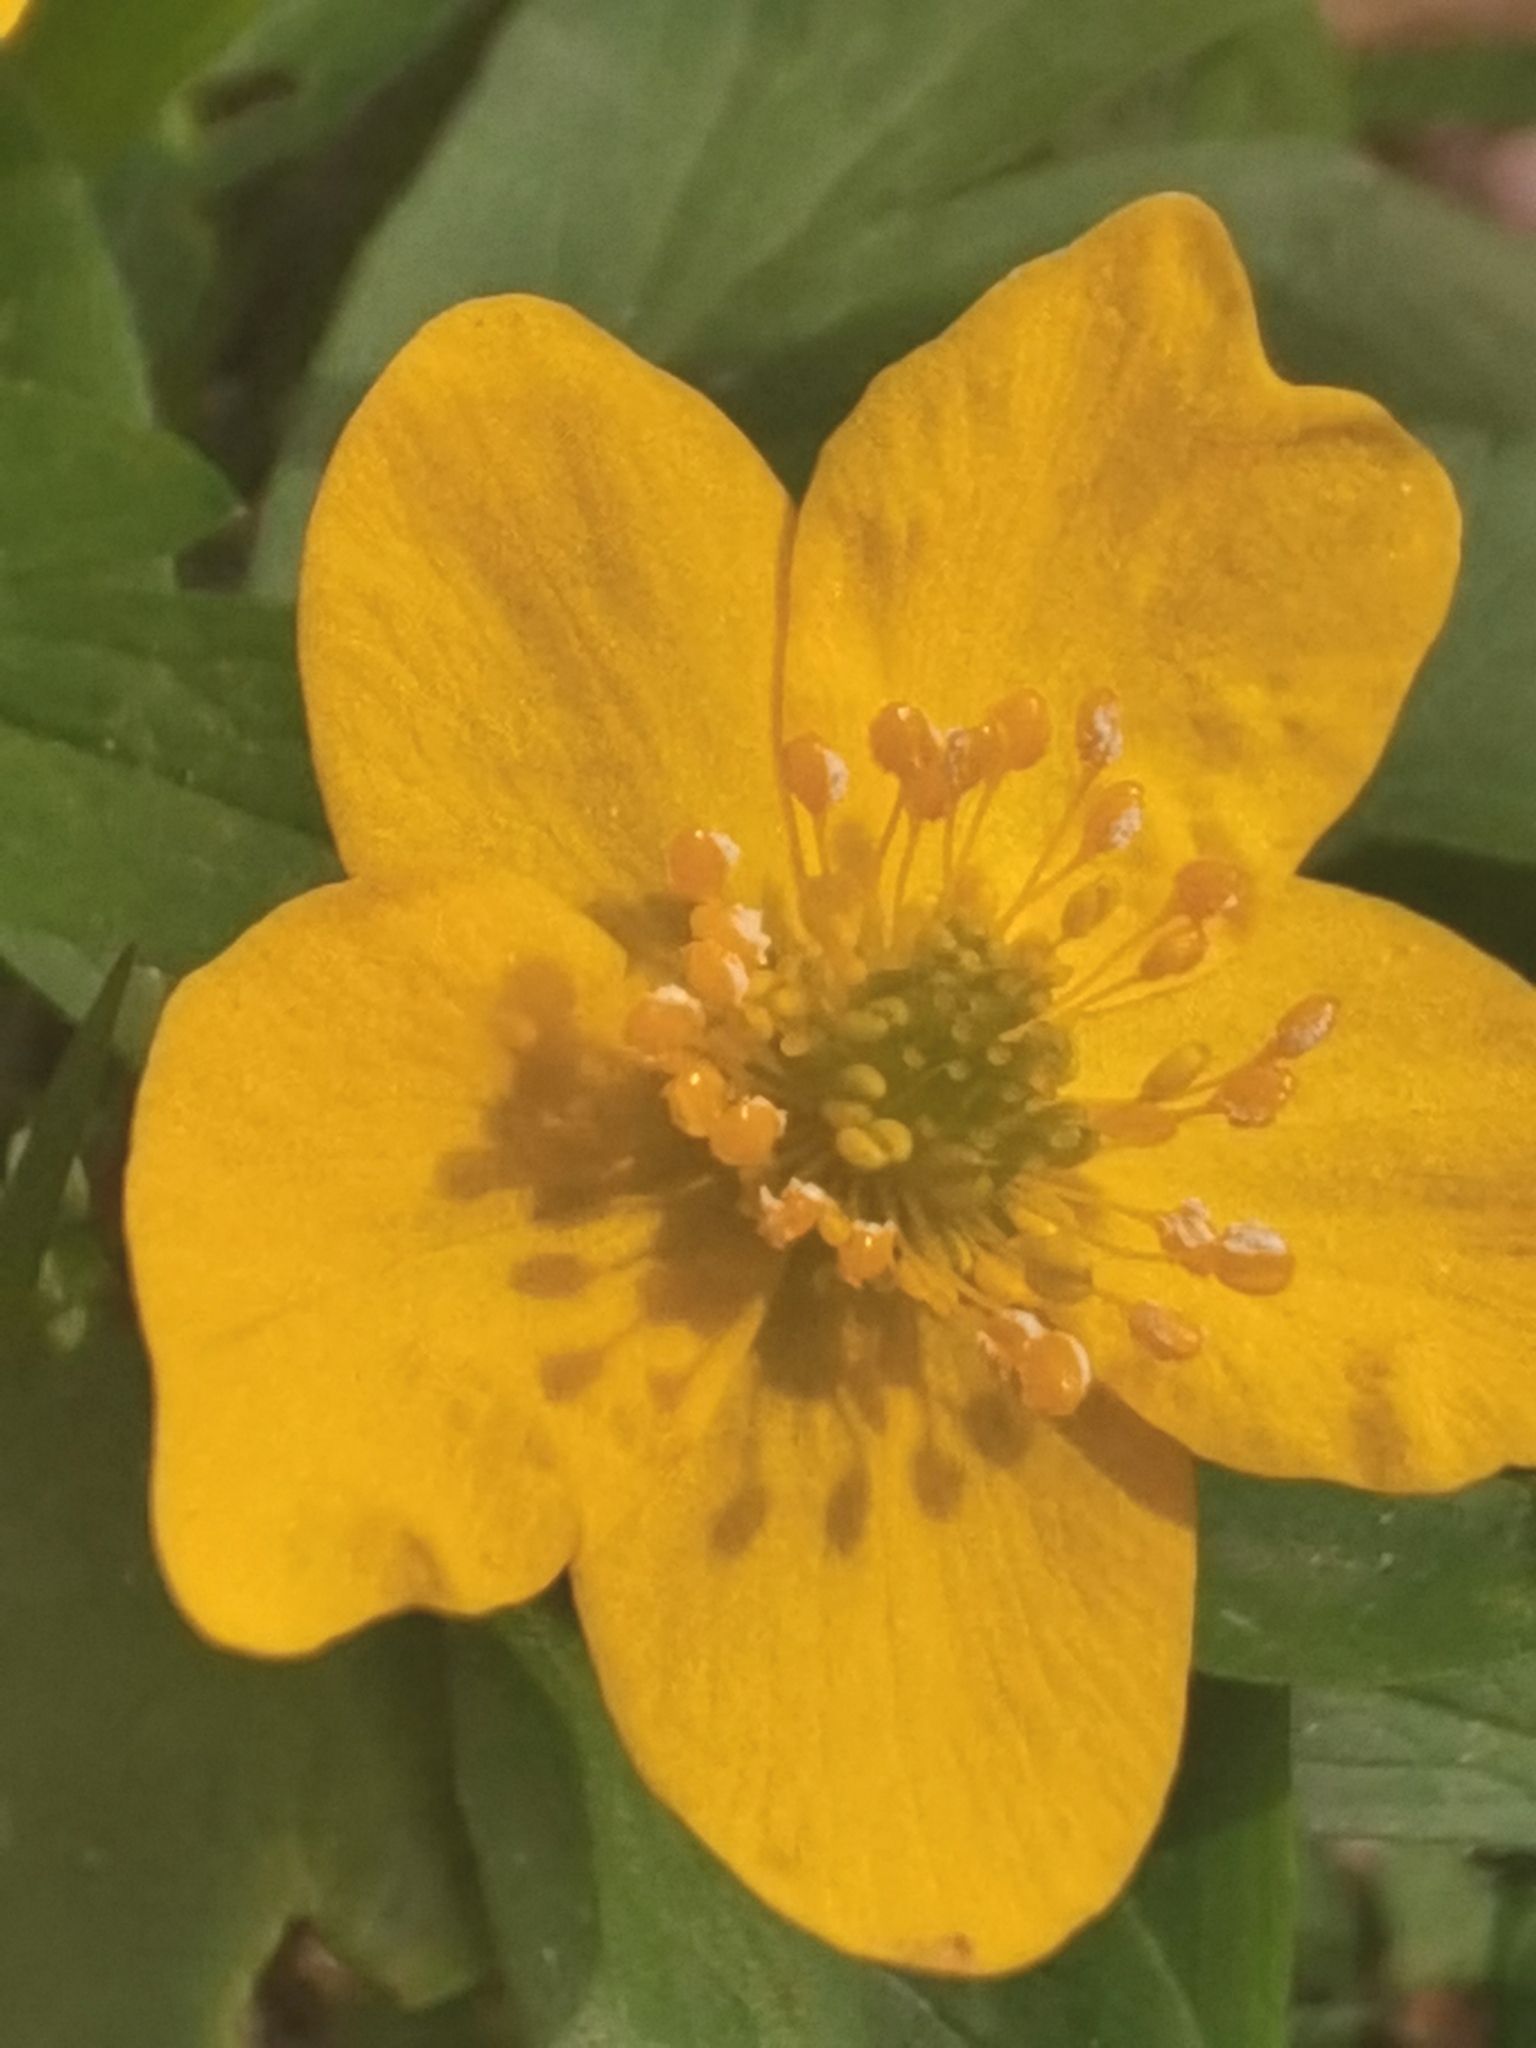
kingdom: Plantae
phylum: Tracheophyta
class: Magnoliopsida
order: Ranunculales
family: Ranunculaceae
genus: Anemone
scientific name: Anemone ranunculoides
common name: Yellow anemone
